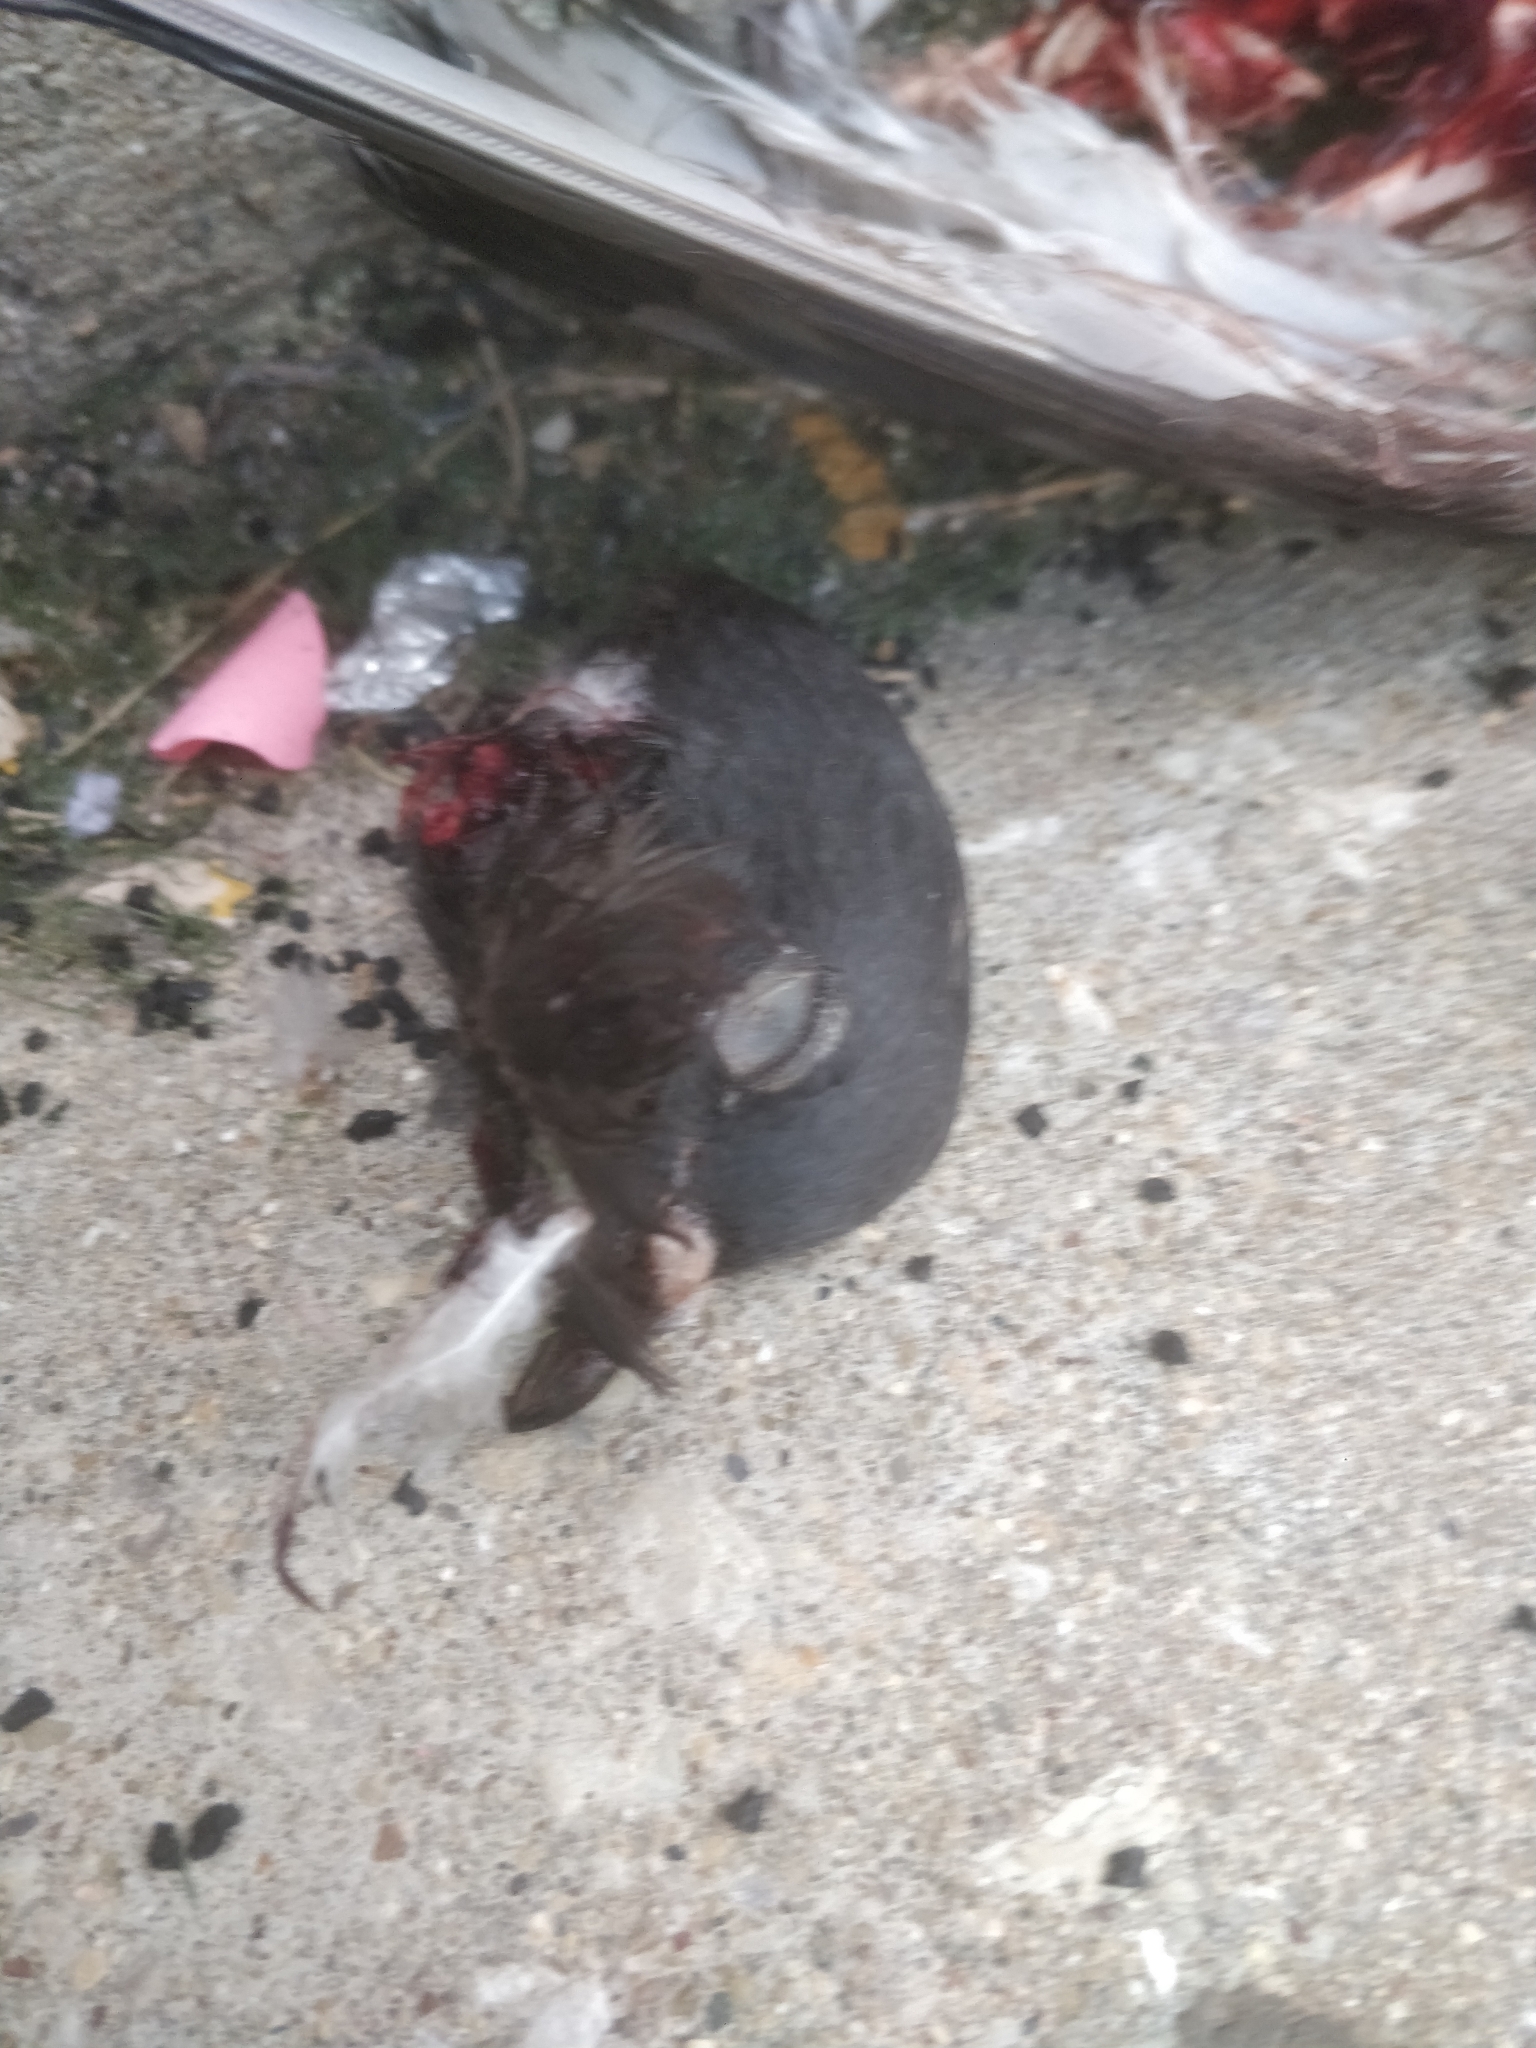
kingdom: Animalia
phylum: Chordata
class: Aves
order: Columbiformes
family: Columbidae
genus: Columba
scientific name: Columba livia
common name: Rock pigeon
